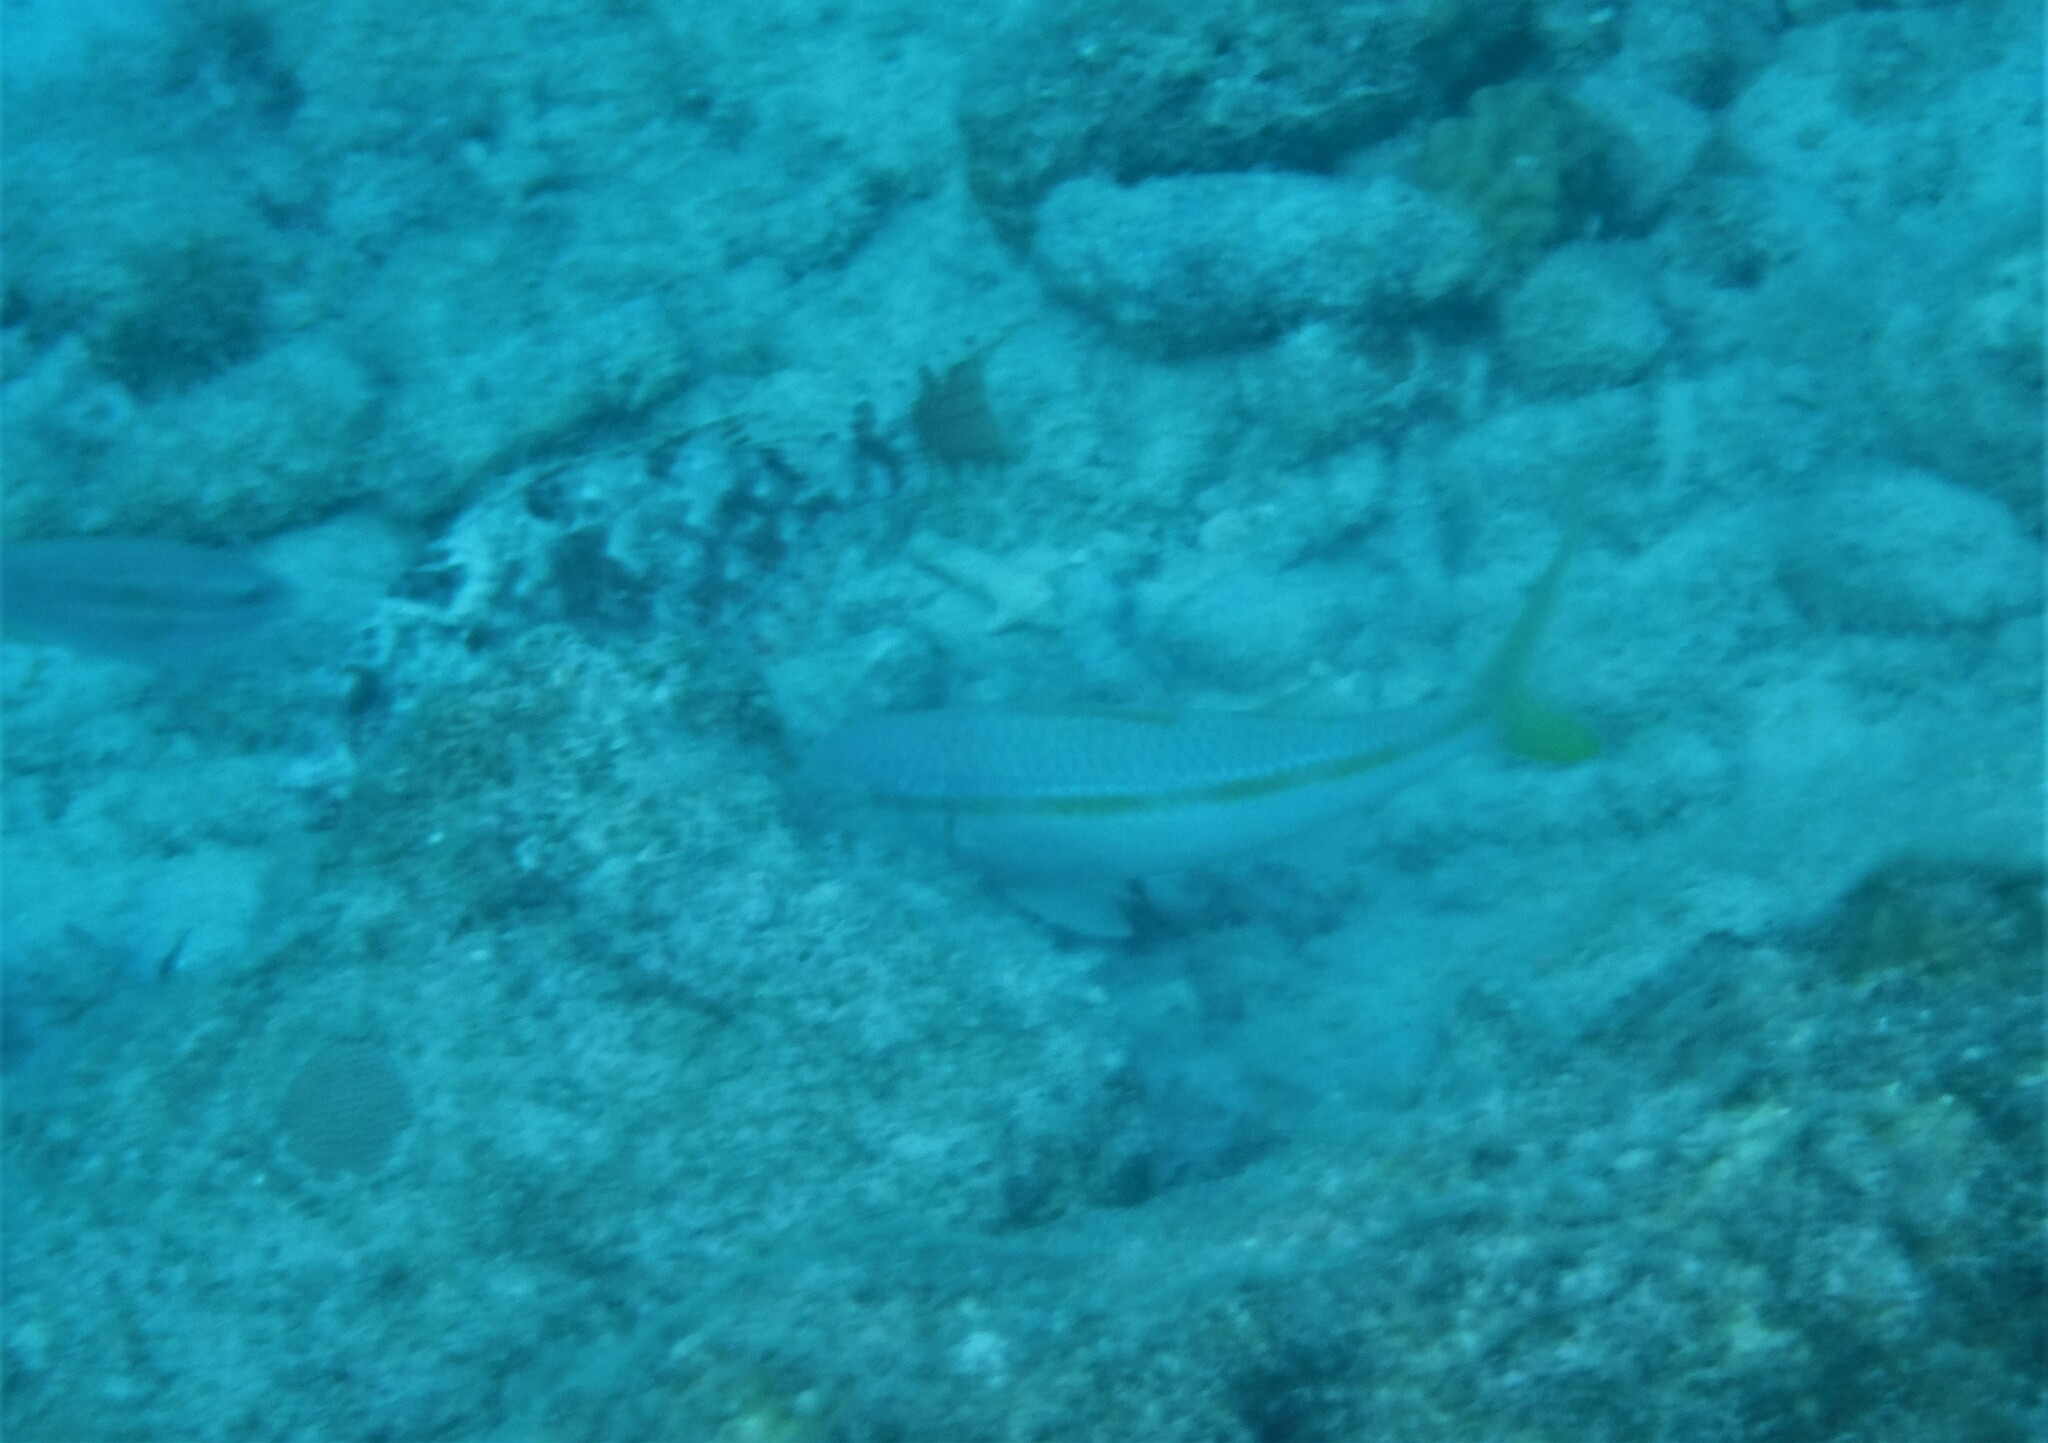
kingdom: Animalia
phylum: Chordata
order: Perciformes
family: Mullidae
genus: Mulloidichthys
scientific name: Mulloidichthys martinicus
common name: Yellow goatfish
